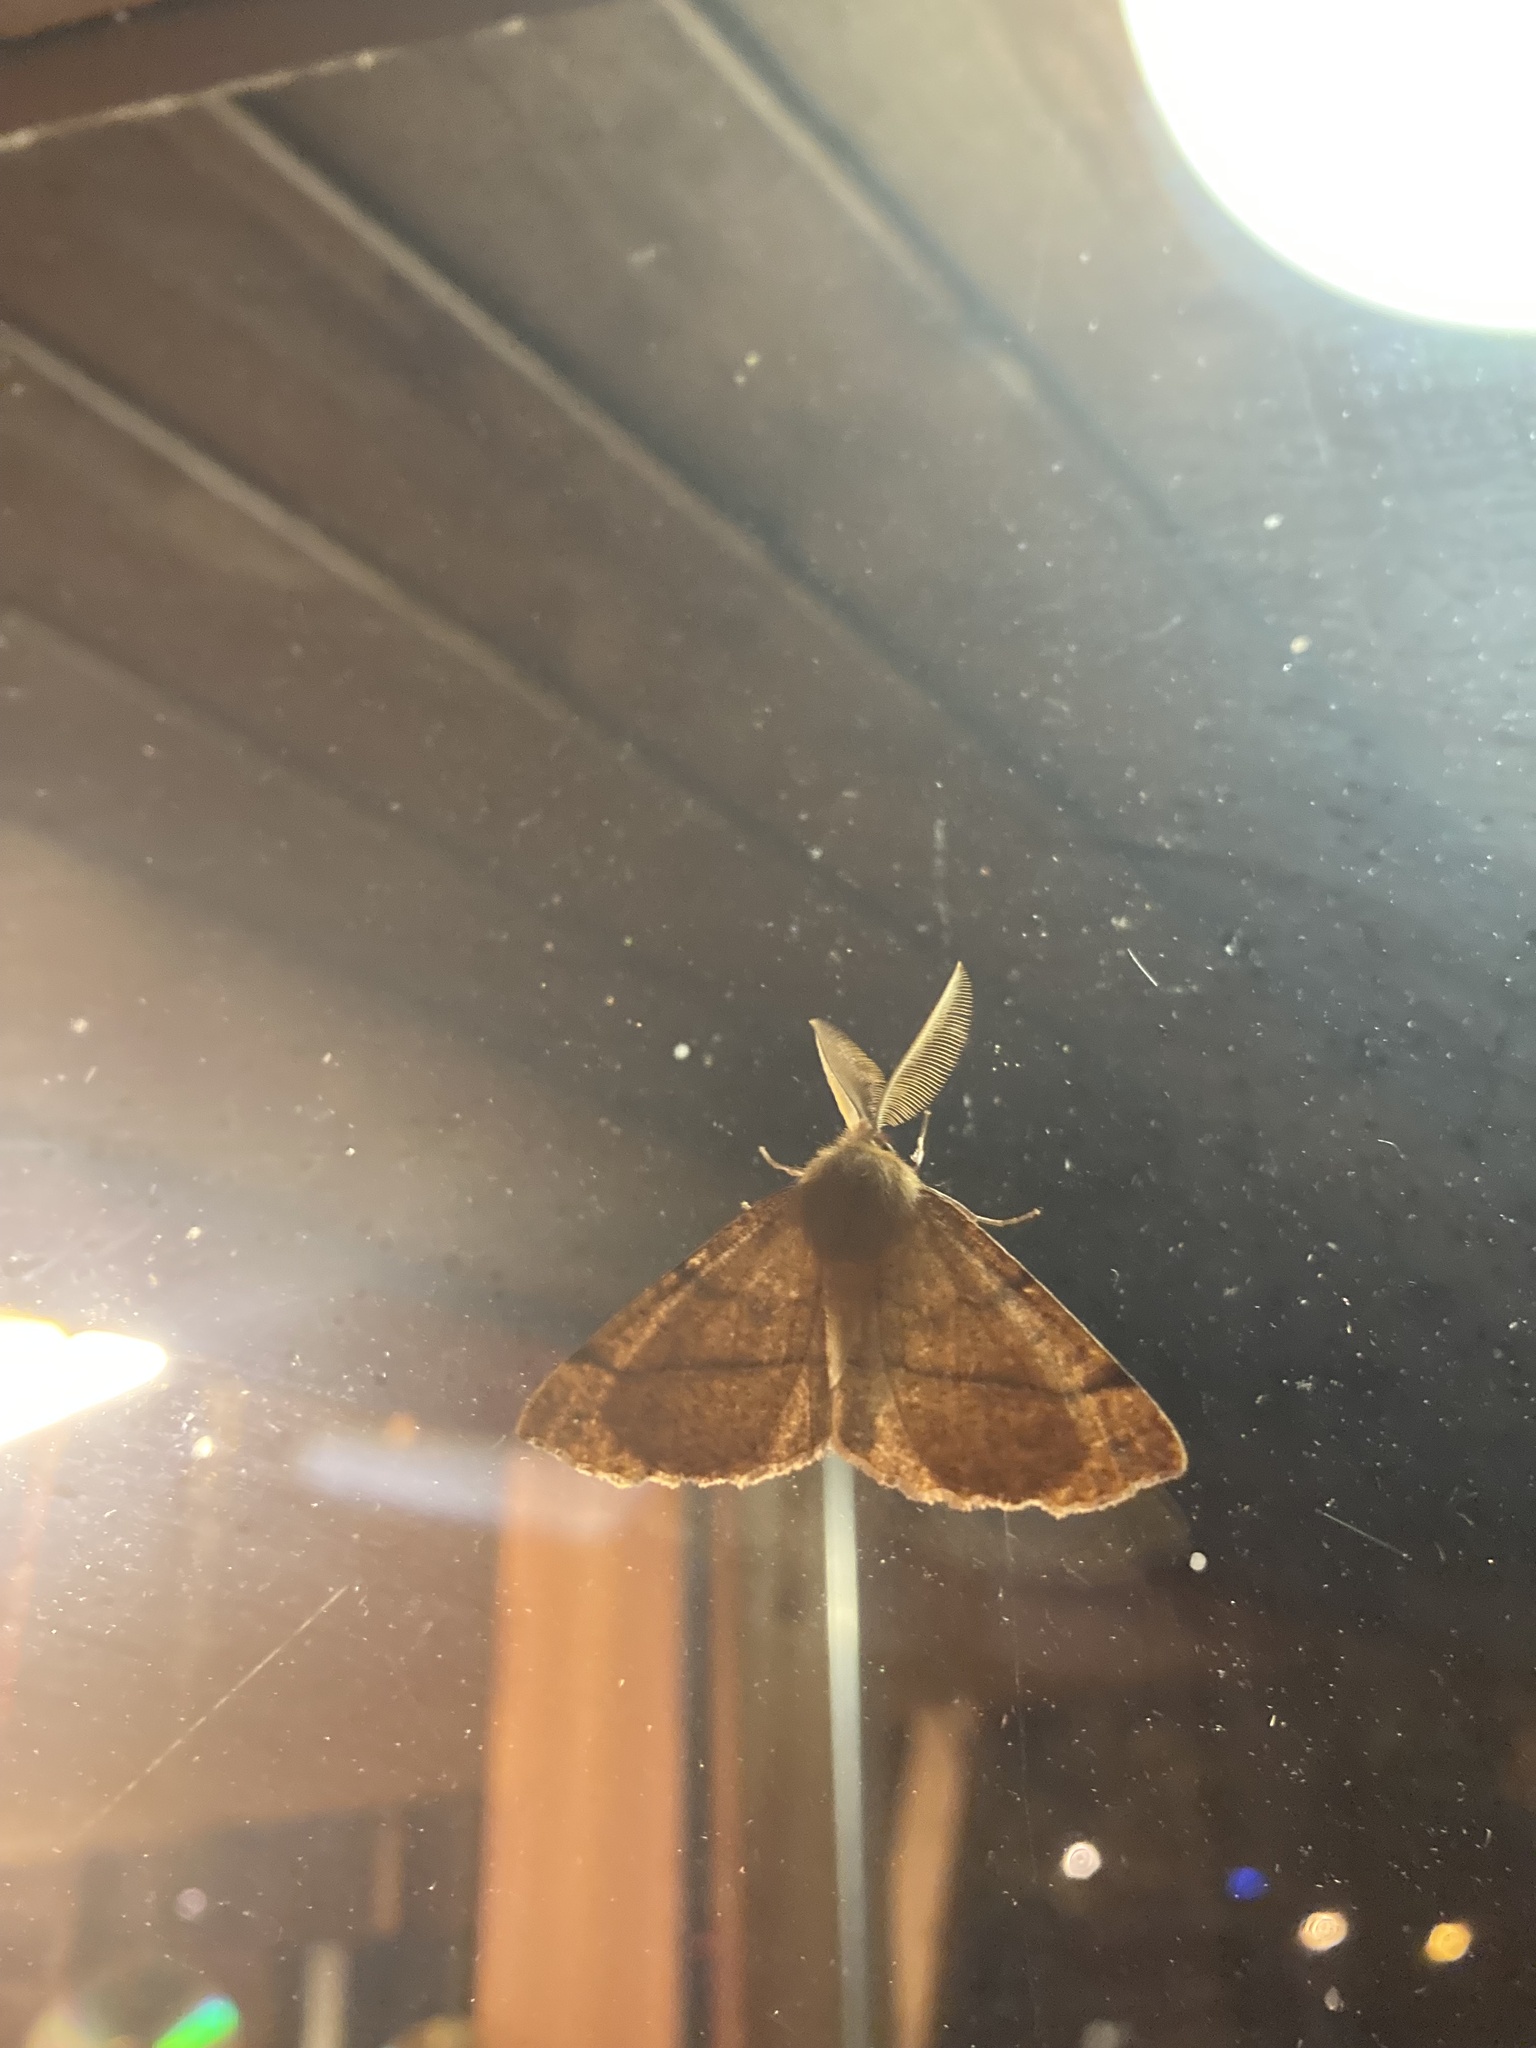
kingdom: Animalia
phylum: Arthropoda
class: Insecta
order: Lepidoptera
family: Geometridae
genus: Colotois
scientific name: Colotois pennaria
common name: Feathered thorn
